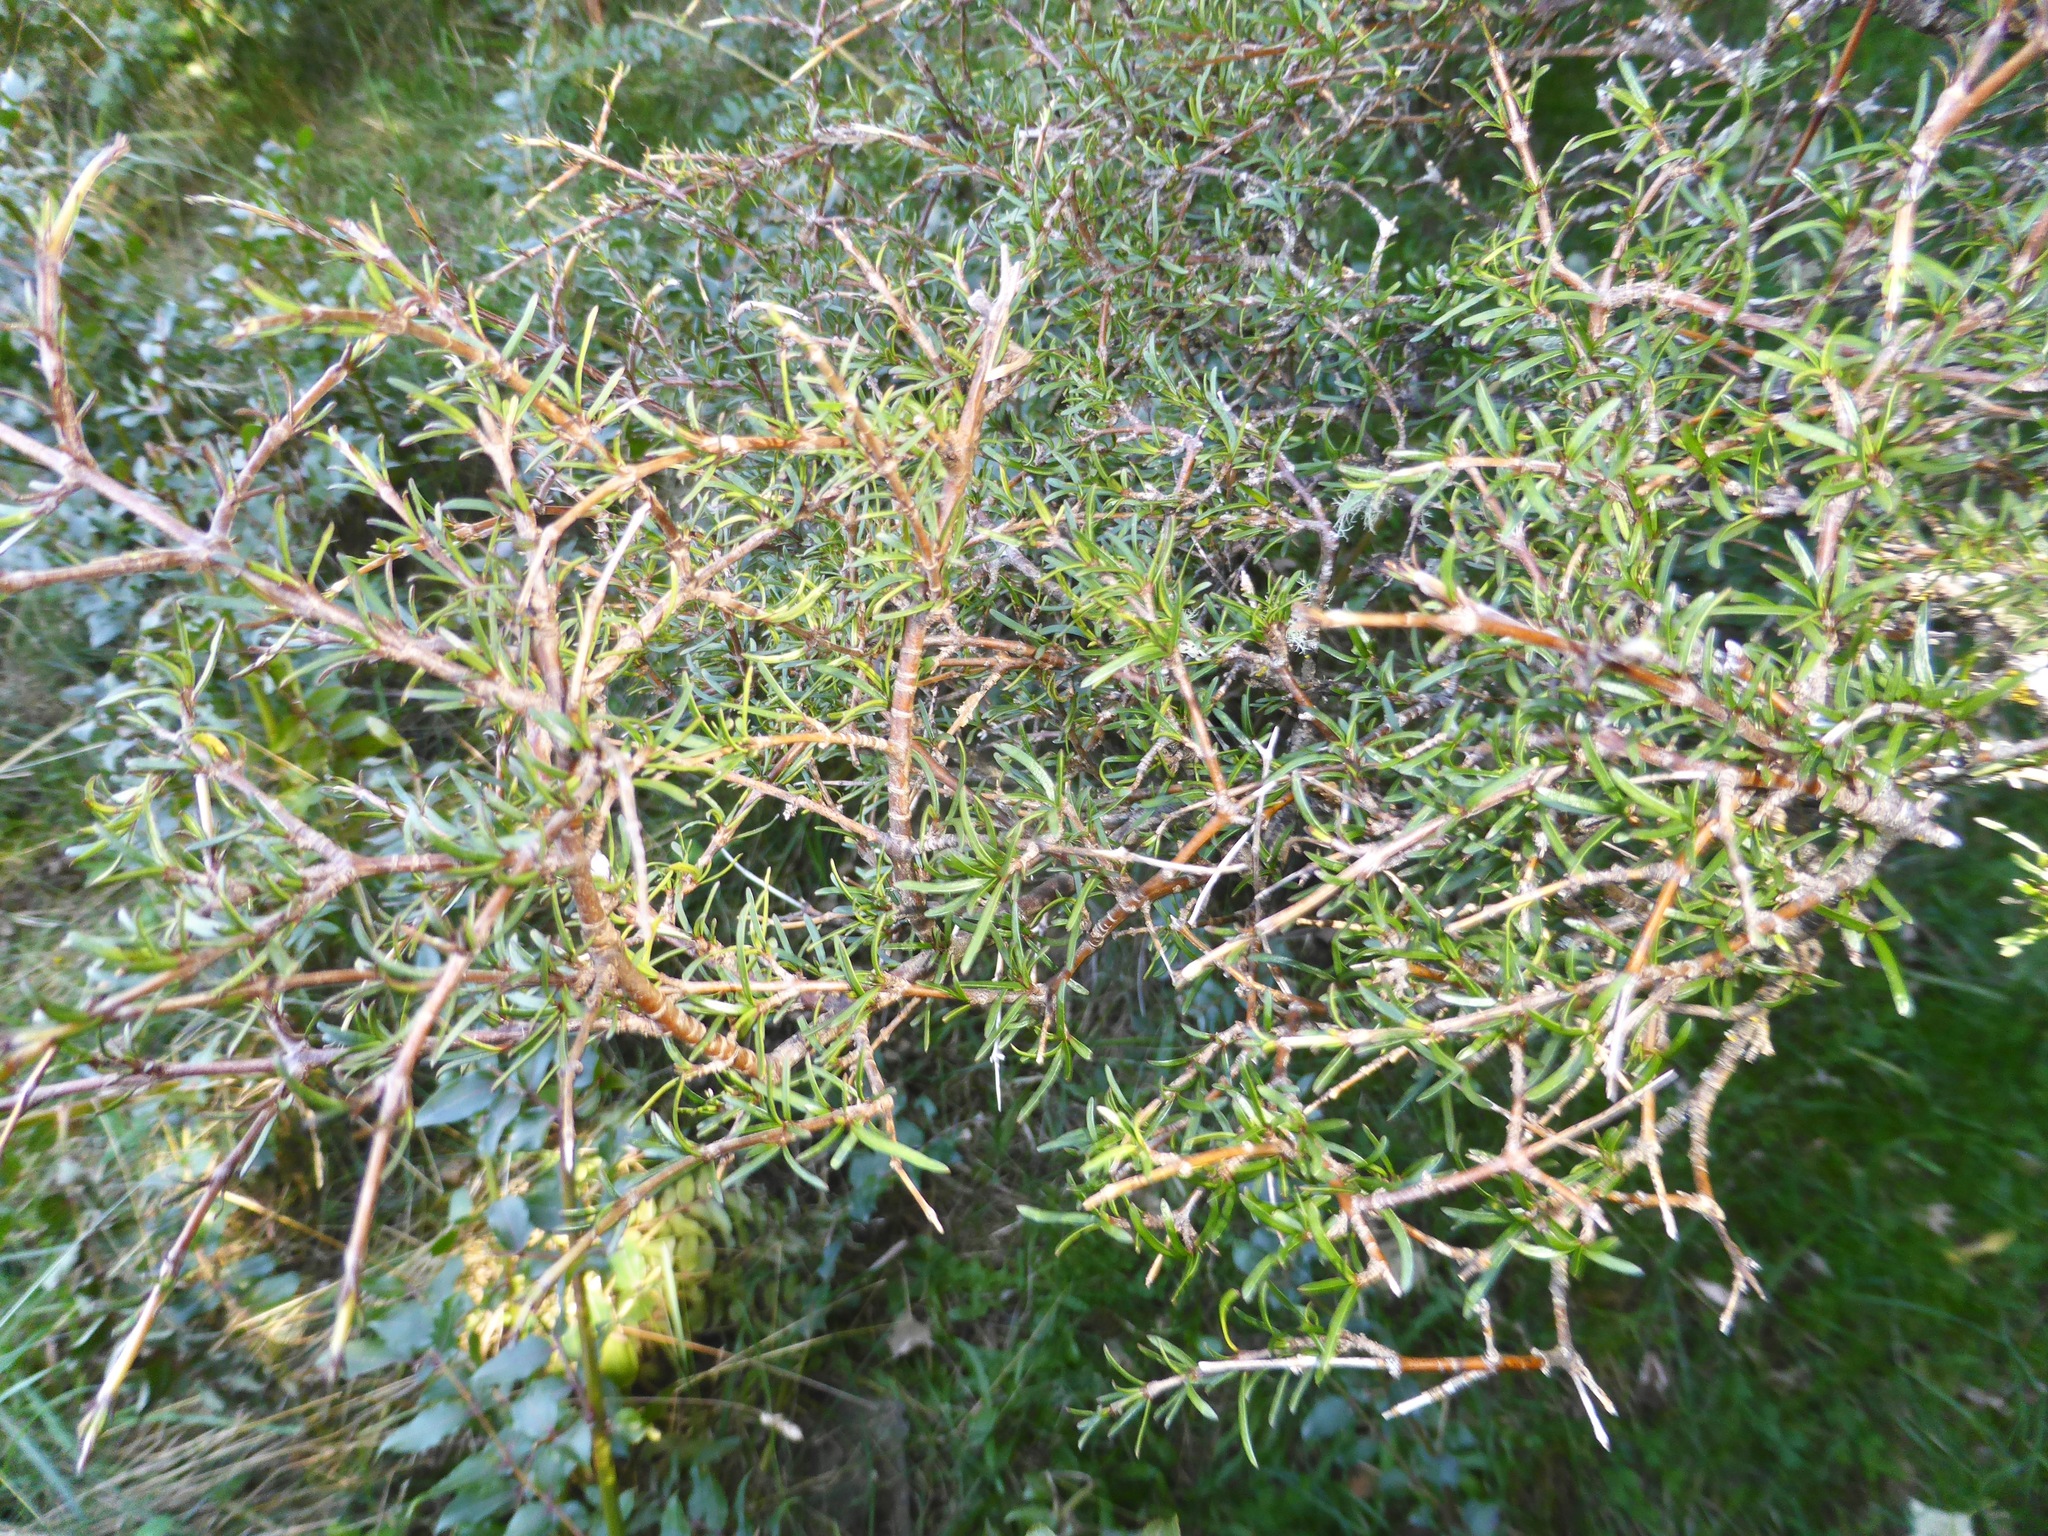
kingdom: Plantae
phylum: Tracheophyta
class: Magnoliopsida
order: Gentianales
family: Rubiaceae
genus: Coprosma
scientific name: Coprosma rugosa
